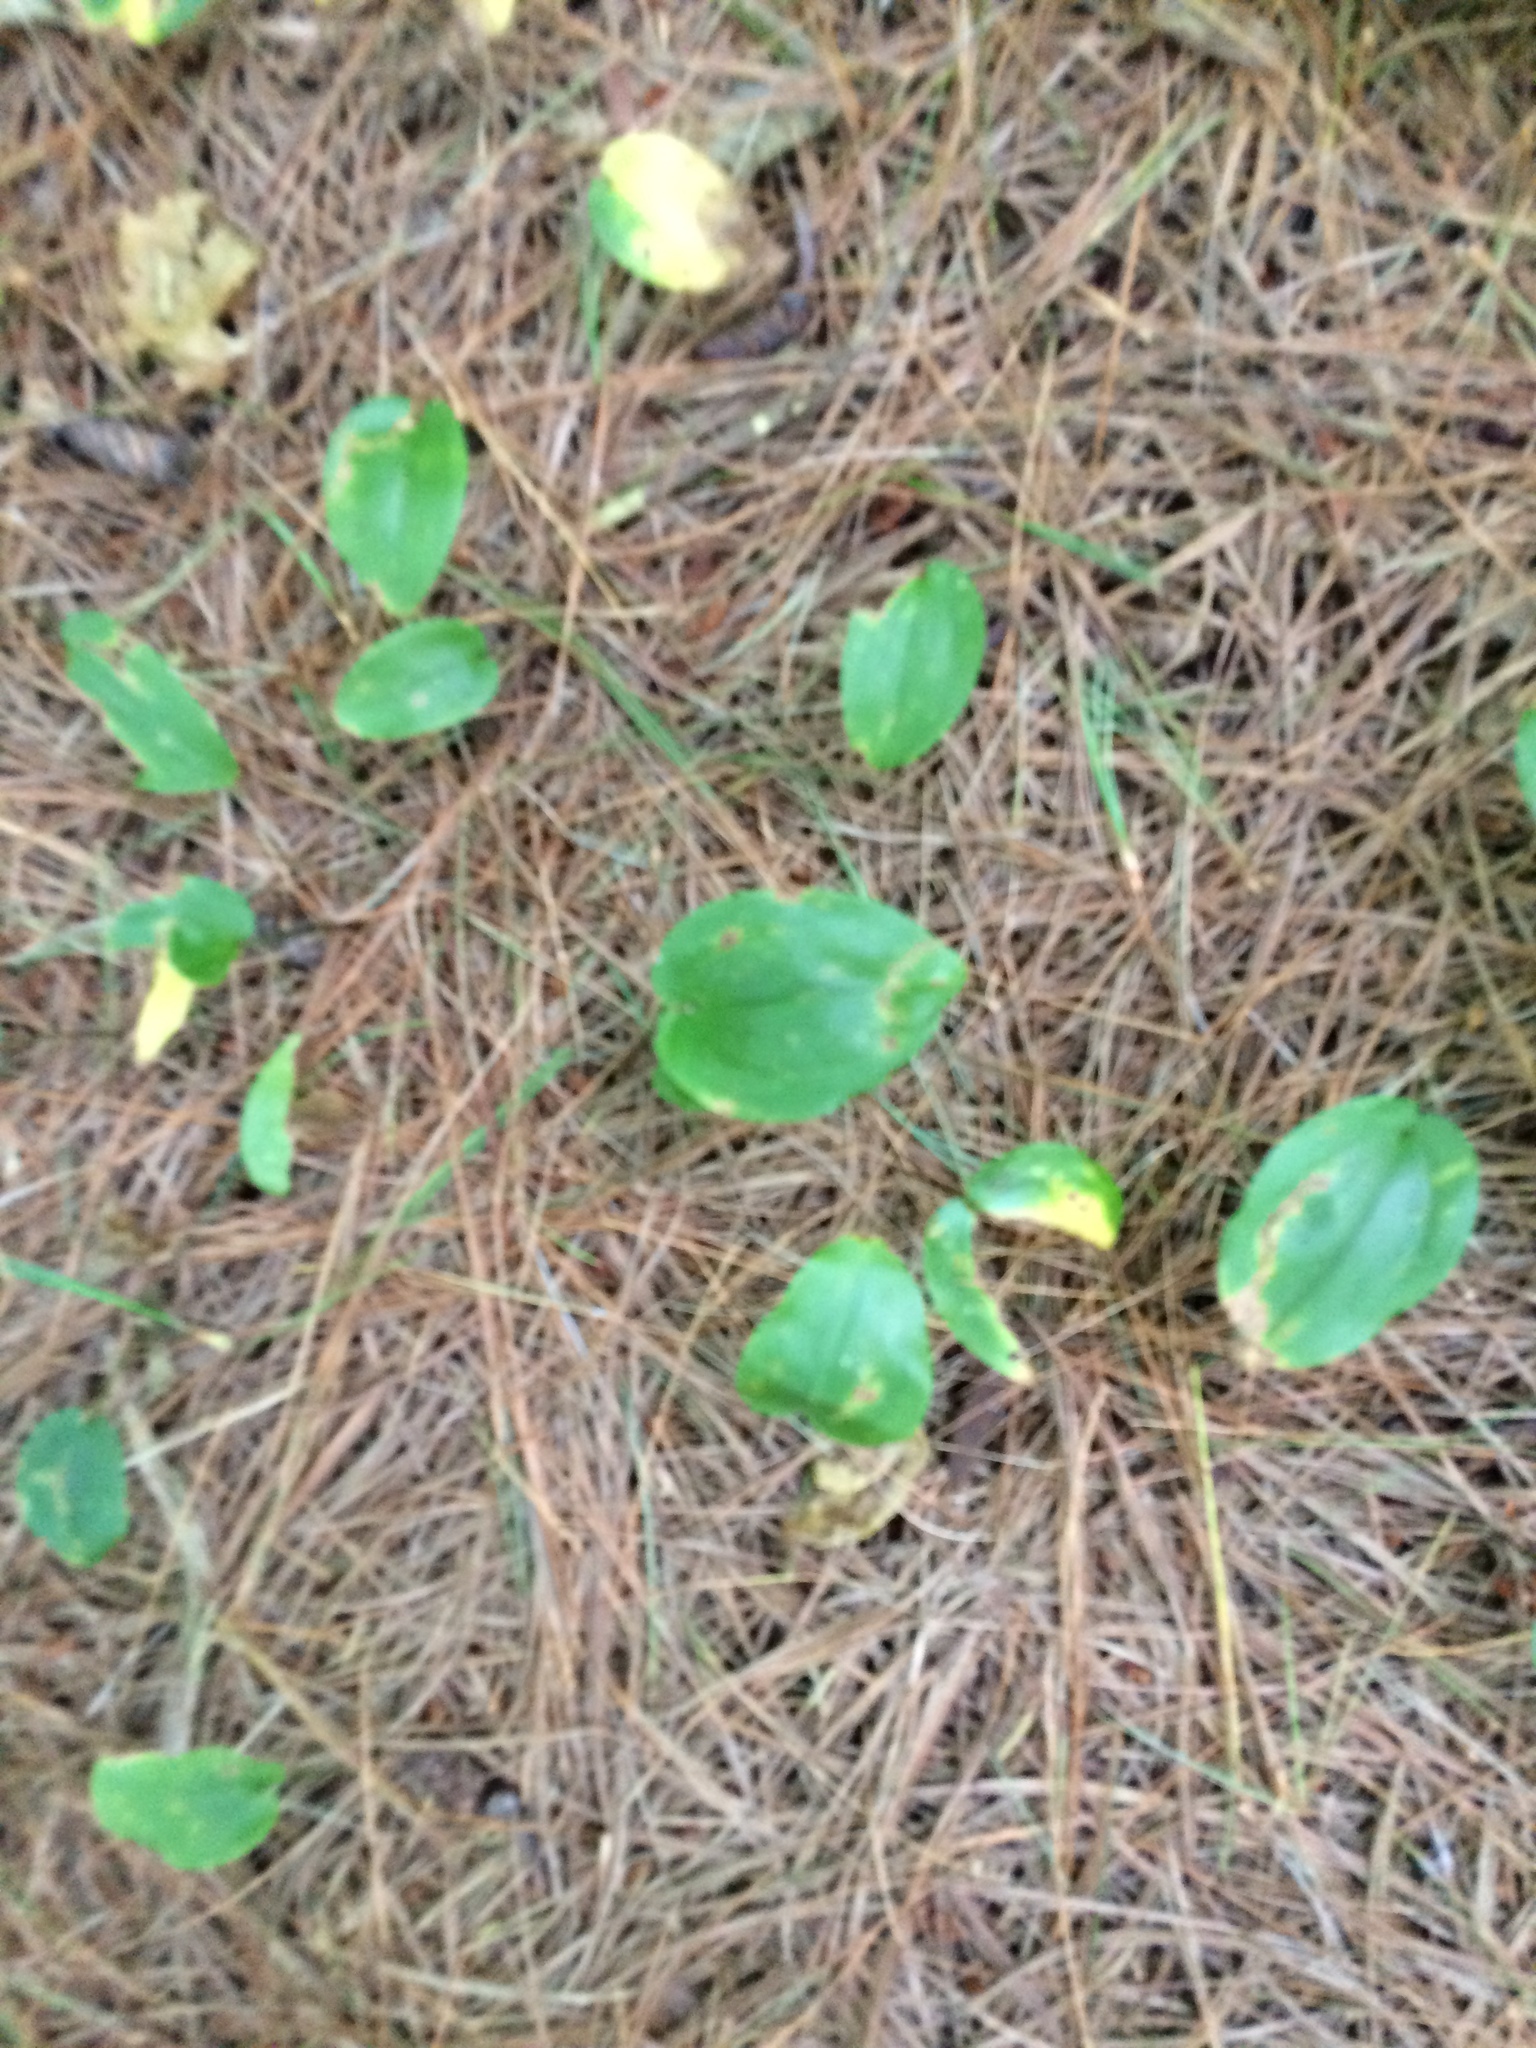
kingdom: Plantae
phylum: Tracheophyta
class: Liliopsida
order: Asparagales
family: Asparagaceae
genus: Maianthemum
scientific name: Maianthemum canadense
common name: False lily-of-the-valley
